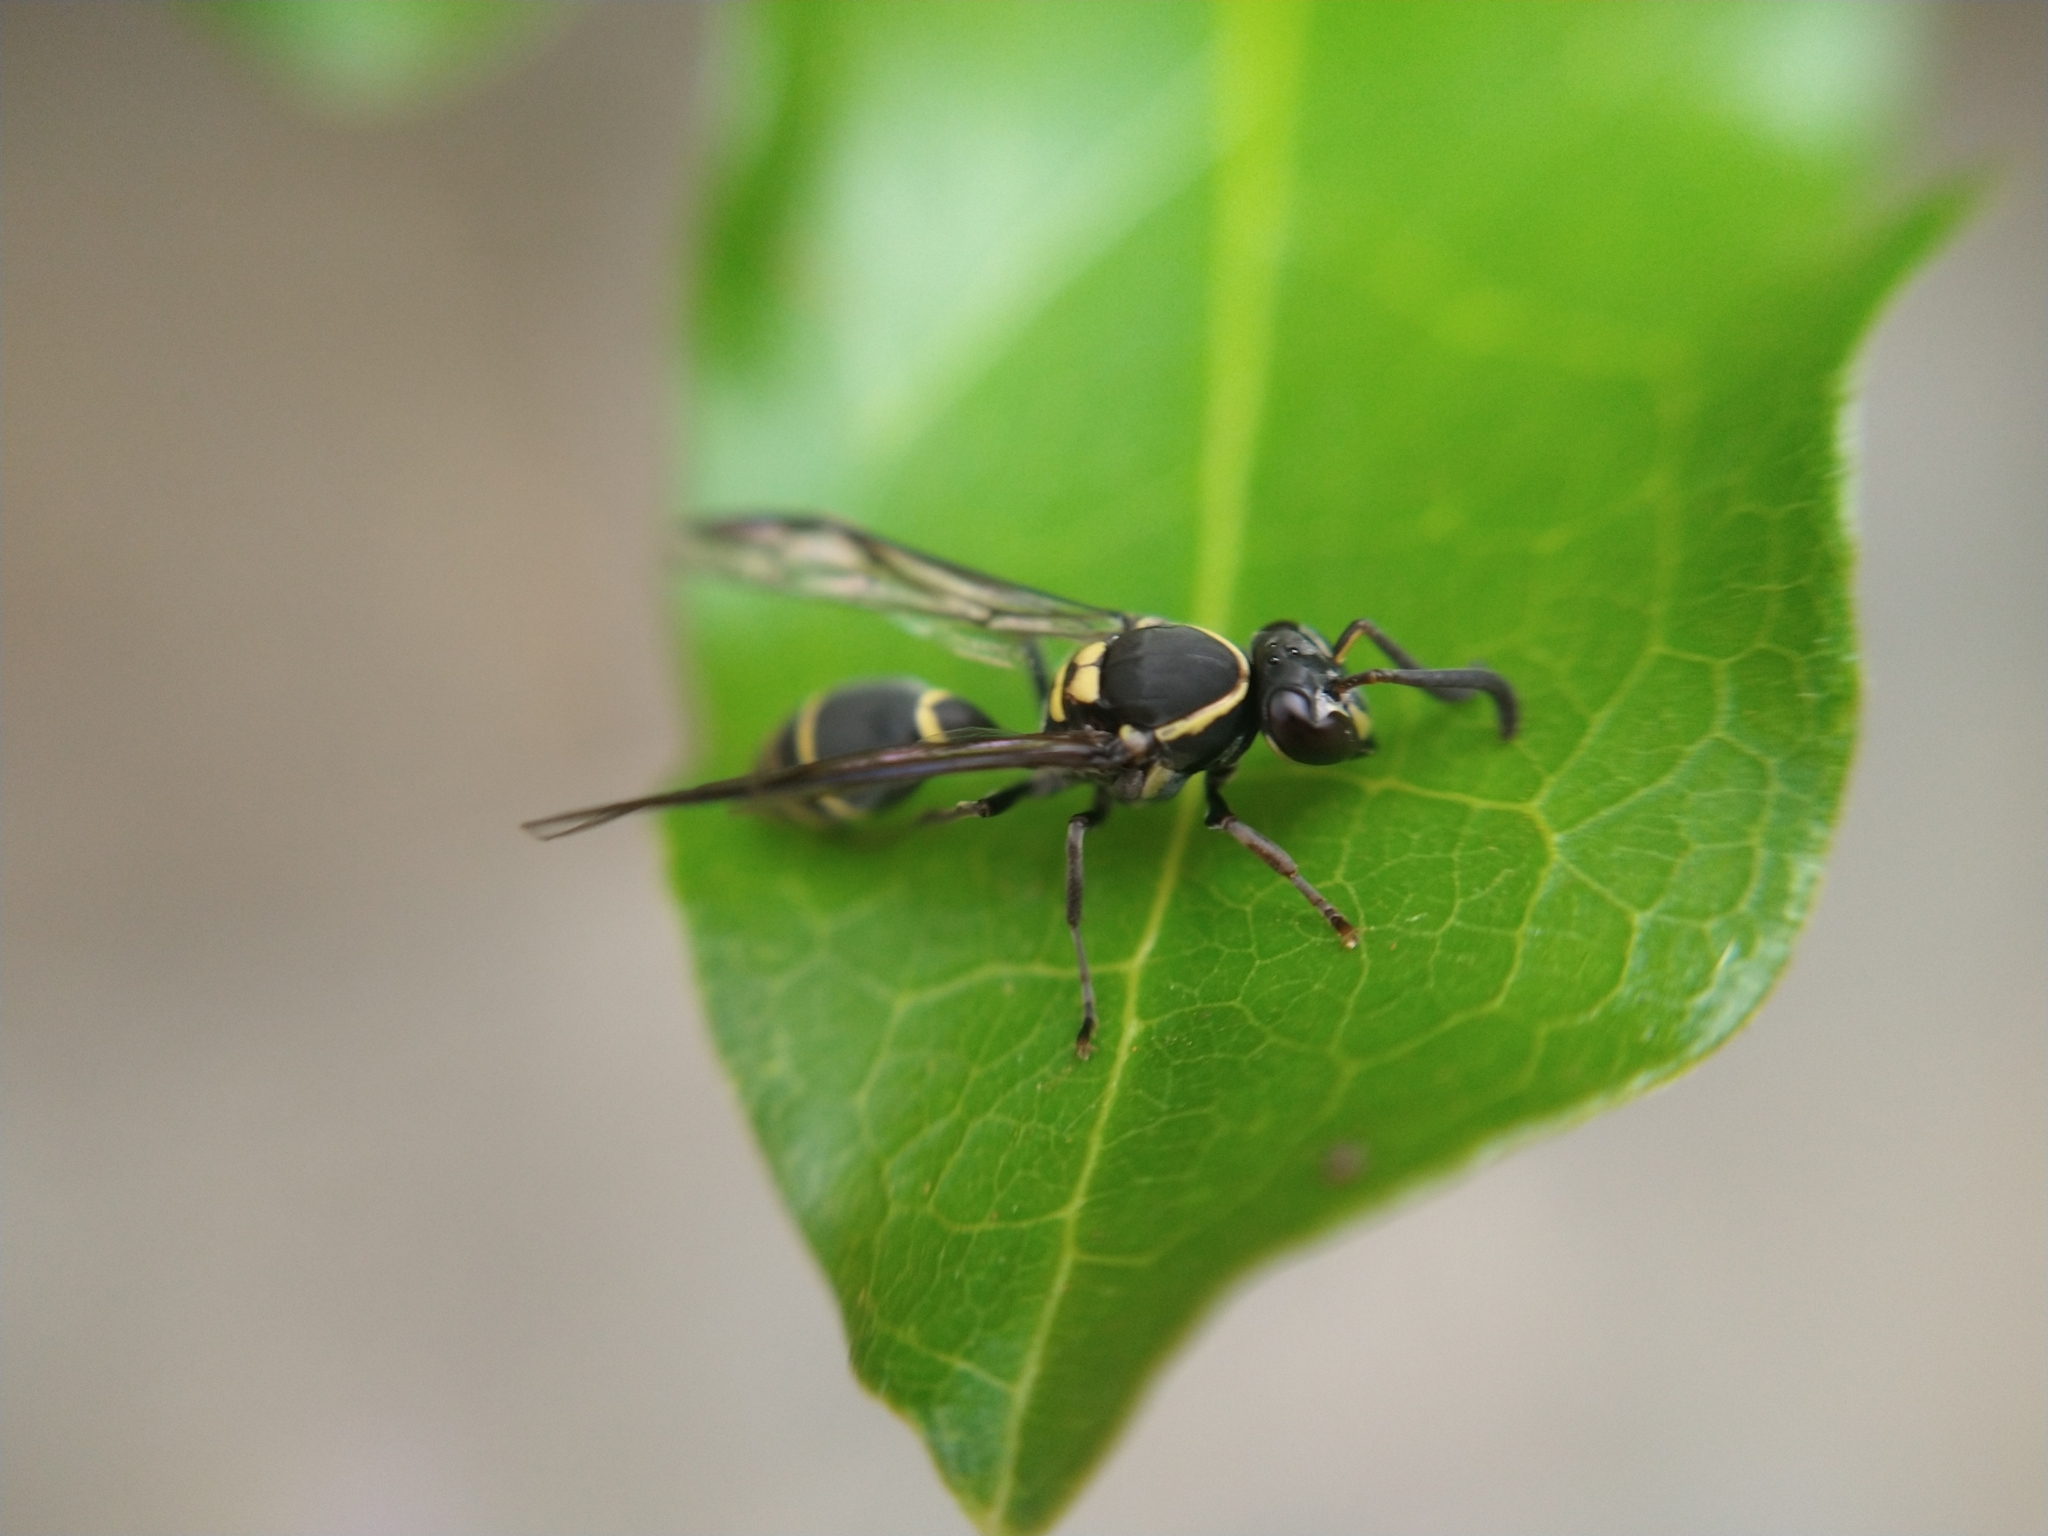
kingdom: Animalia
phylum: Arthropoda
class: Insecta
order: Hymenoptera
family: Eumenidae
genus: Polybia
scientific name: Polybia occidentalis
